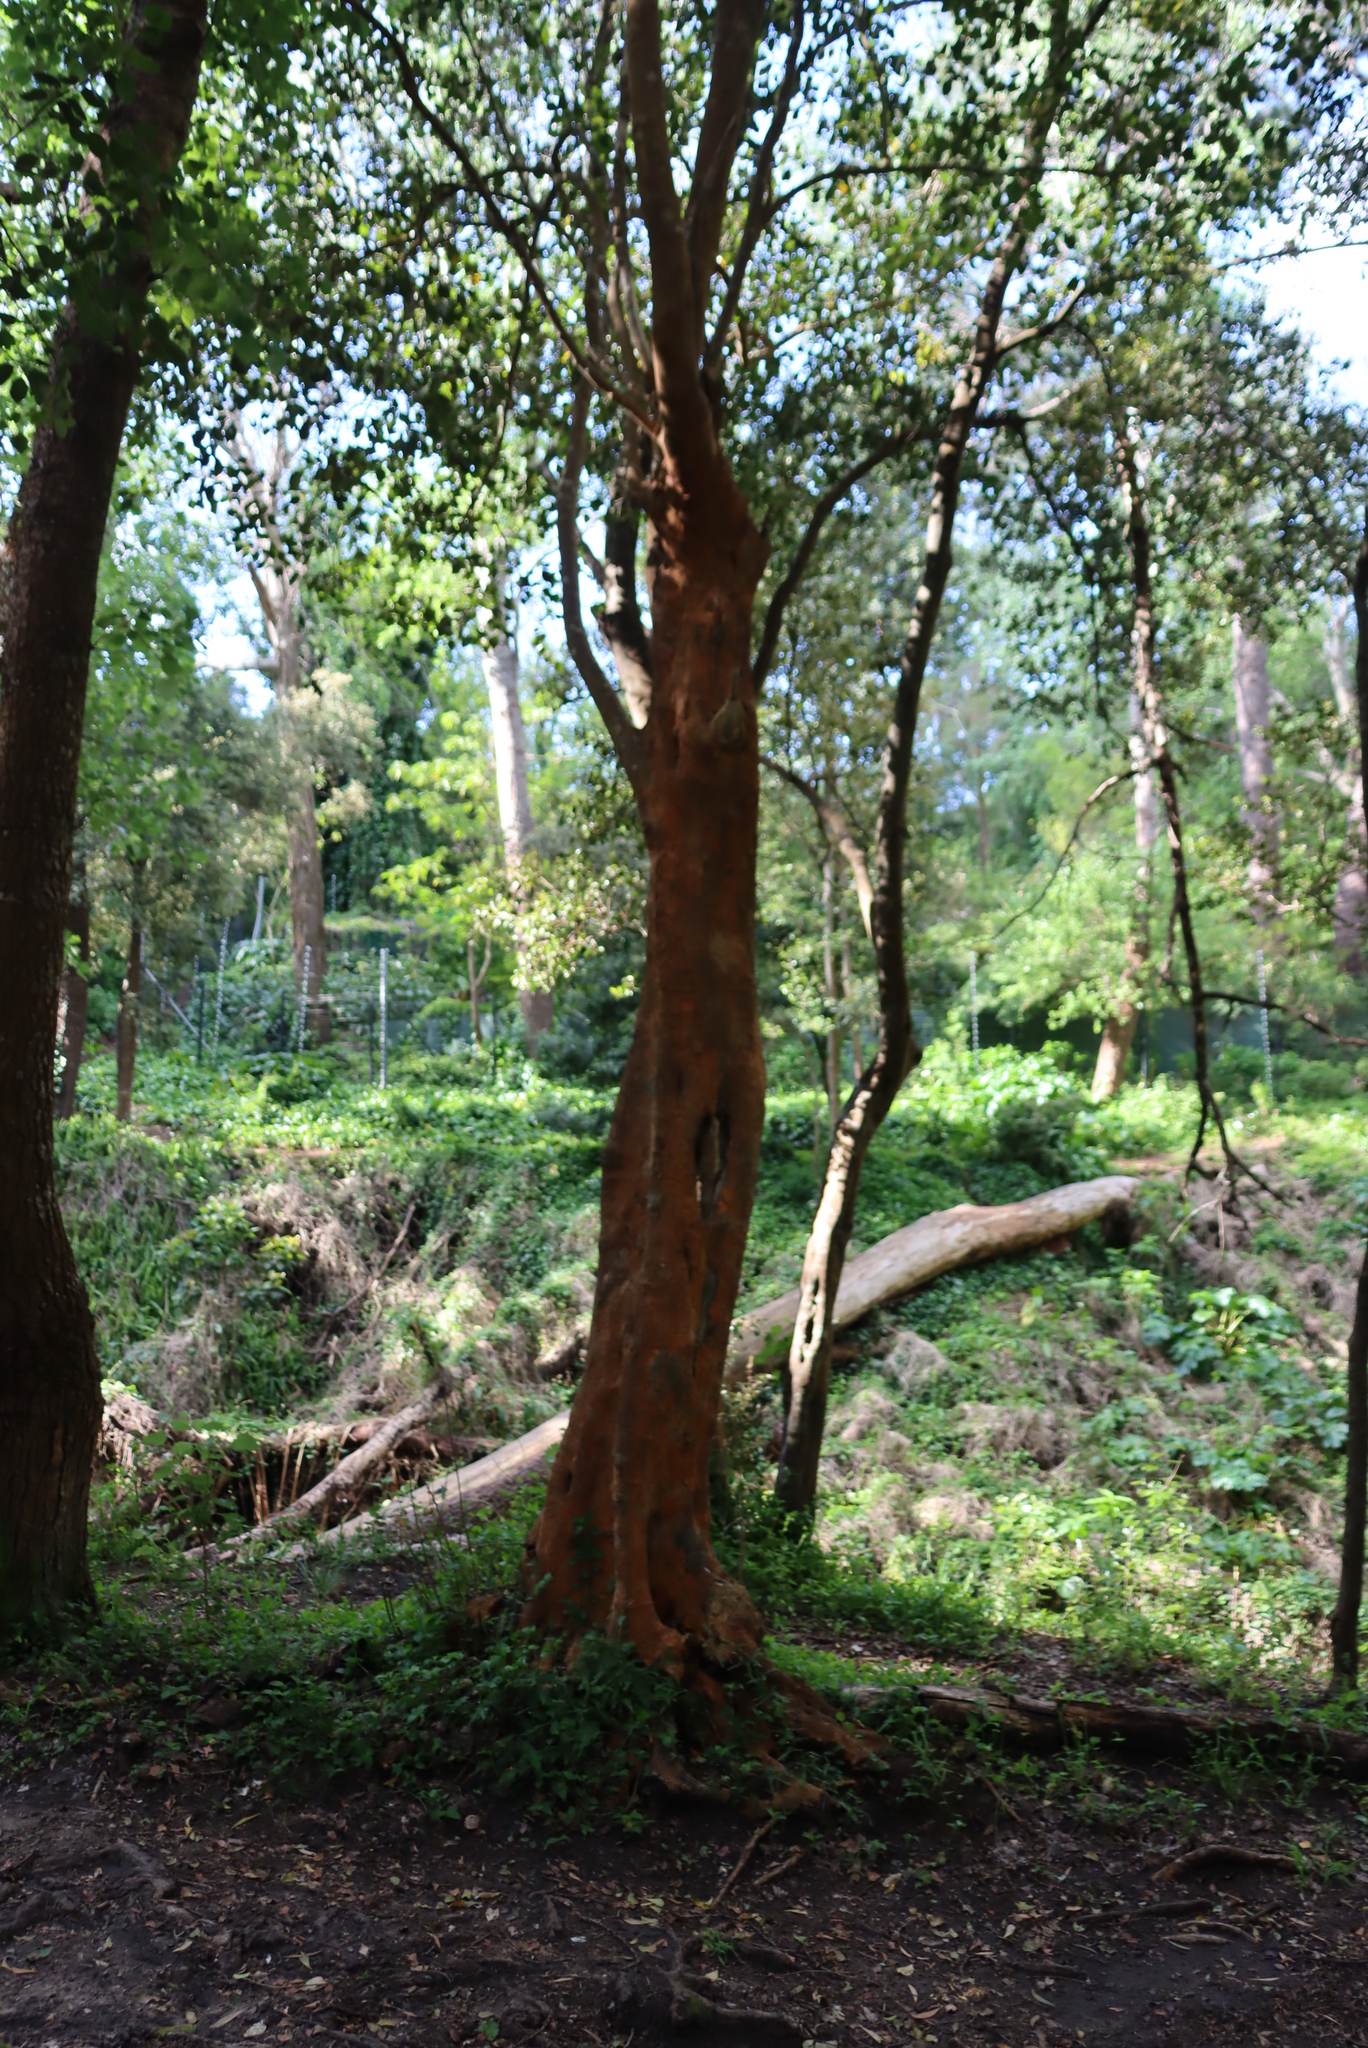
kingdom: Plantae
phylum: Tracheophyta
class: Magnoliopsida
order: Celastrales
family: Celastraceae
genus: Cassine
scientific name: Cassine peragua
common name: Cape saffron
